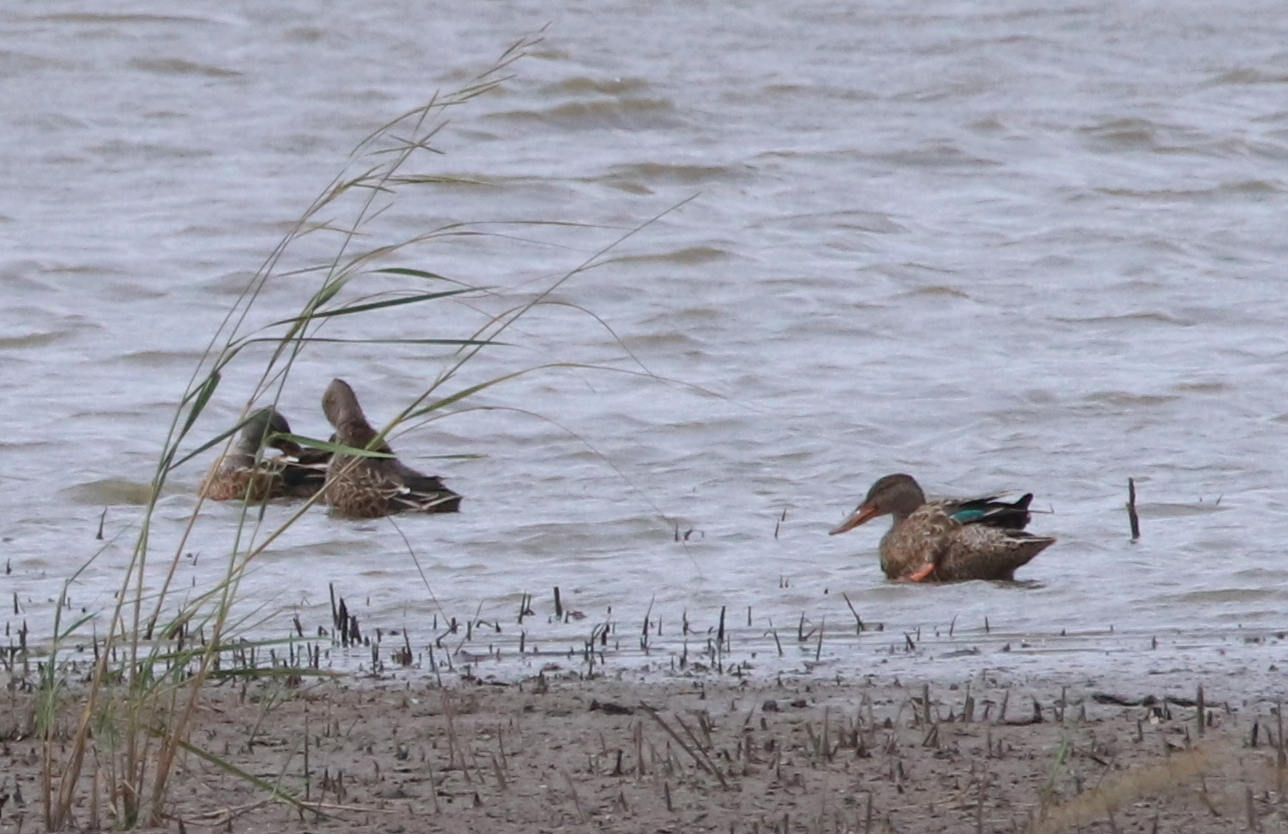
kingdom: Animalia
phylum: Chordata
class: Aves
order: Anseriformes
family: Anatidae
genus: Spatula
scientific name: Spatula clypeata
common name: Northern shoveler
